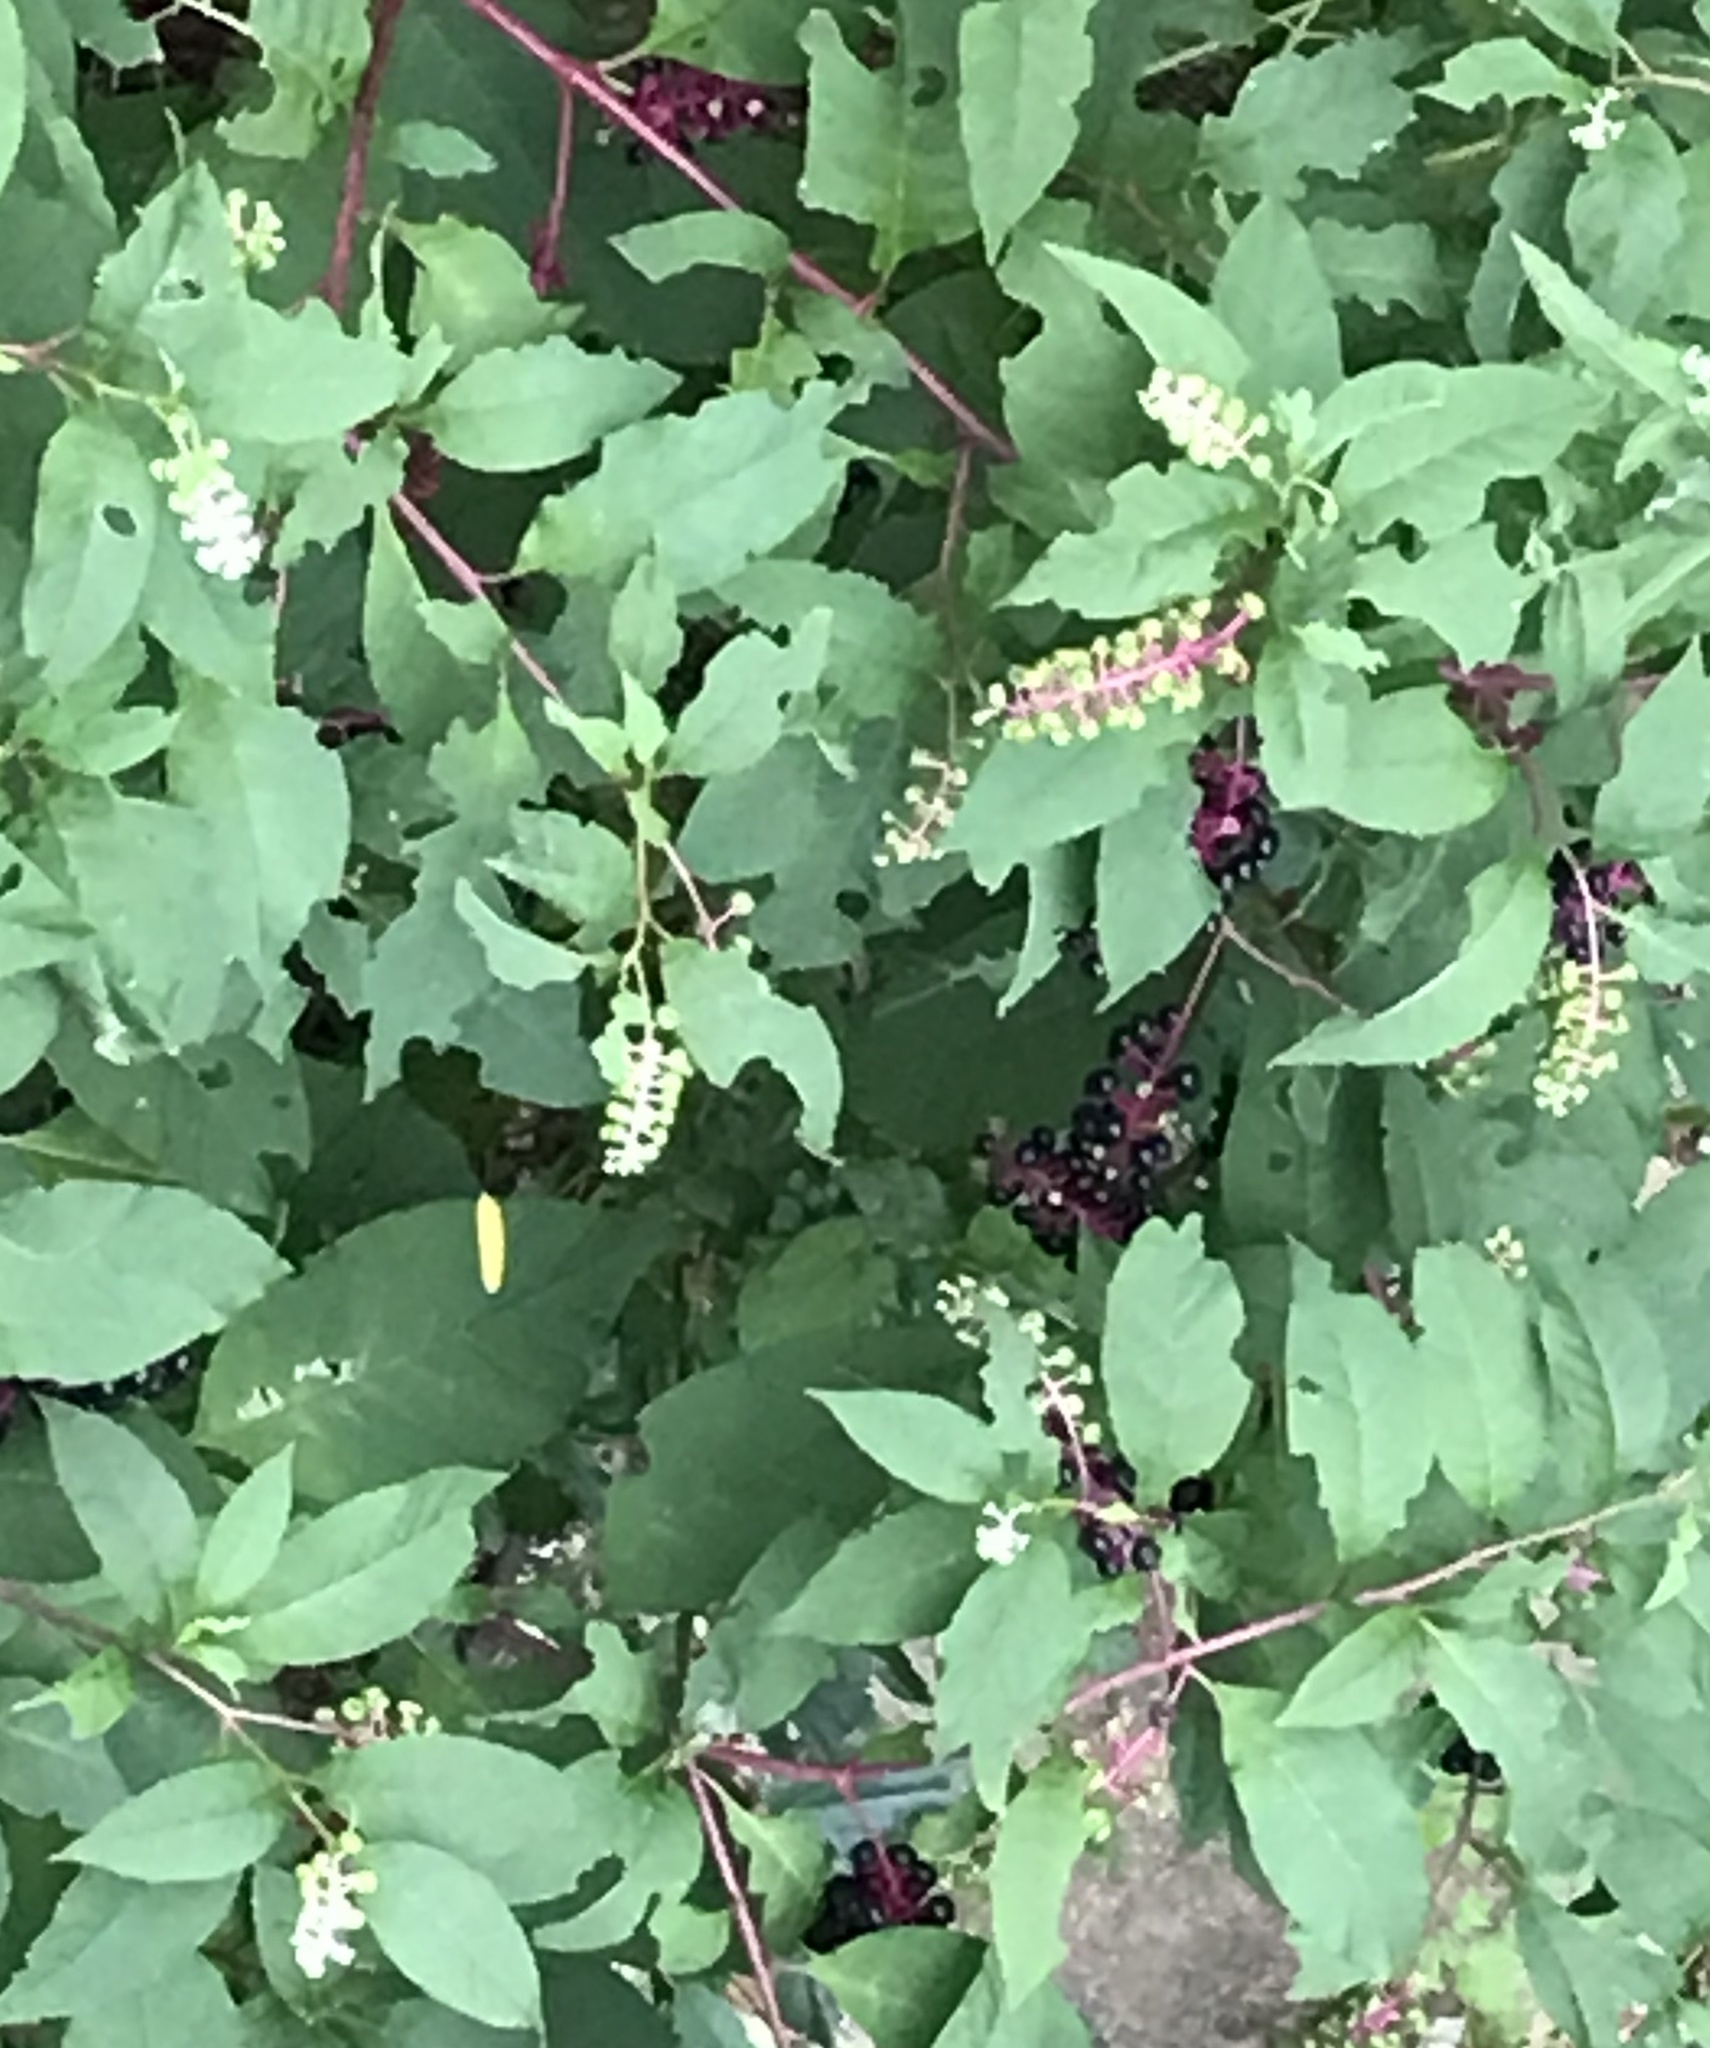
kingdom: Plantae
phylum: Tracheophyta
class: Magnoliopsida
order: Caryophyllales
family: Phytolaccaceae
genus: Phytolacca
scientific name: Phytolacca americana
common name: American pokeweed
